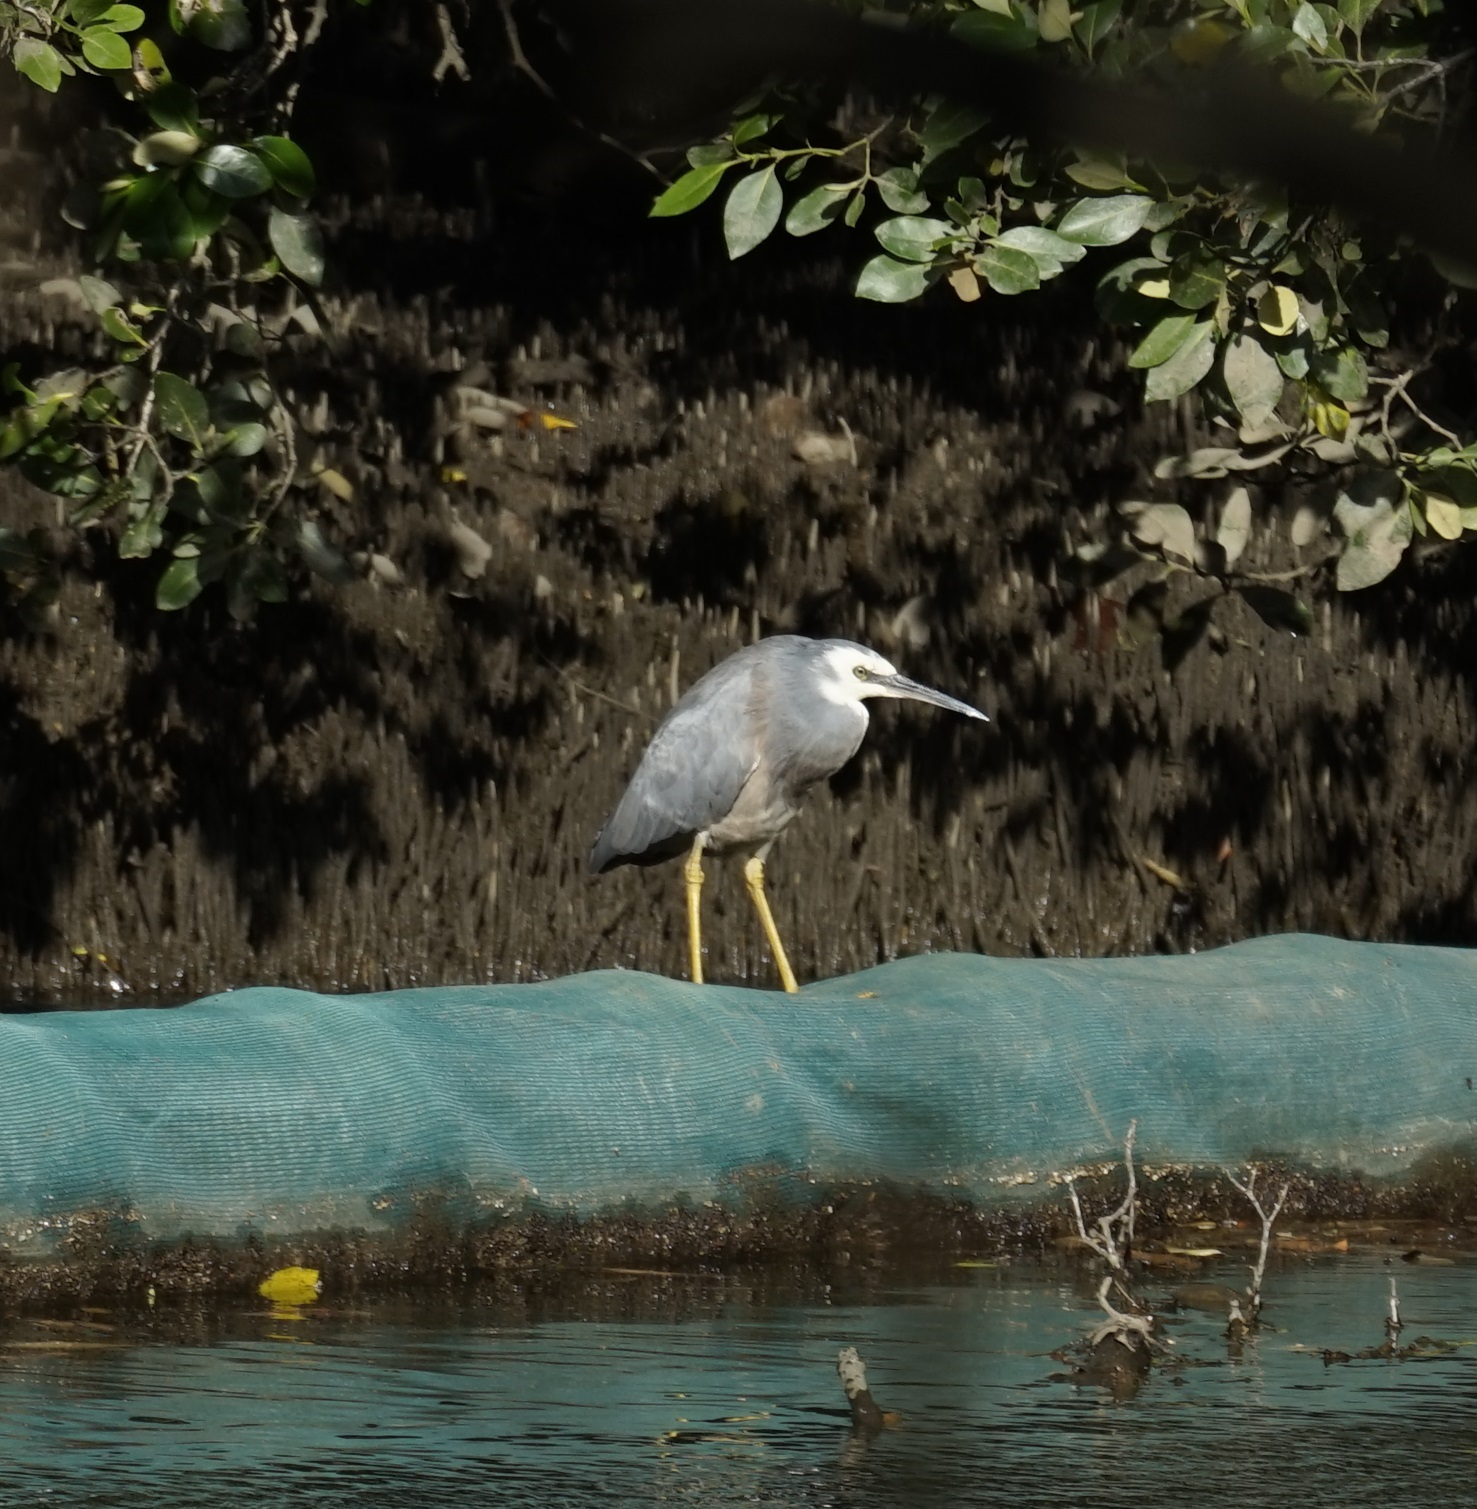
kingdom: Animalia
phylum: Chordata
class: Aves
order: Pelecaniformes
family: Ardeidae
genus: Egretta
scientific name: Egretta novaehollandiae
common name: White-faced heron
